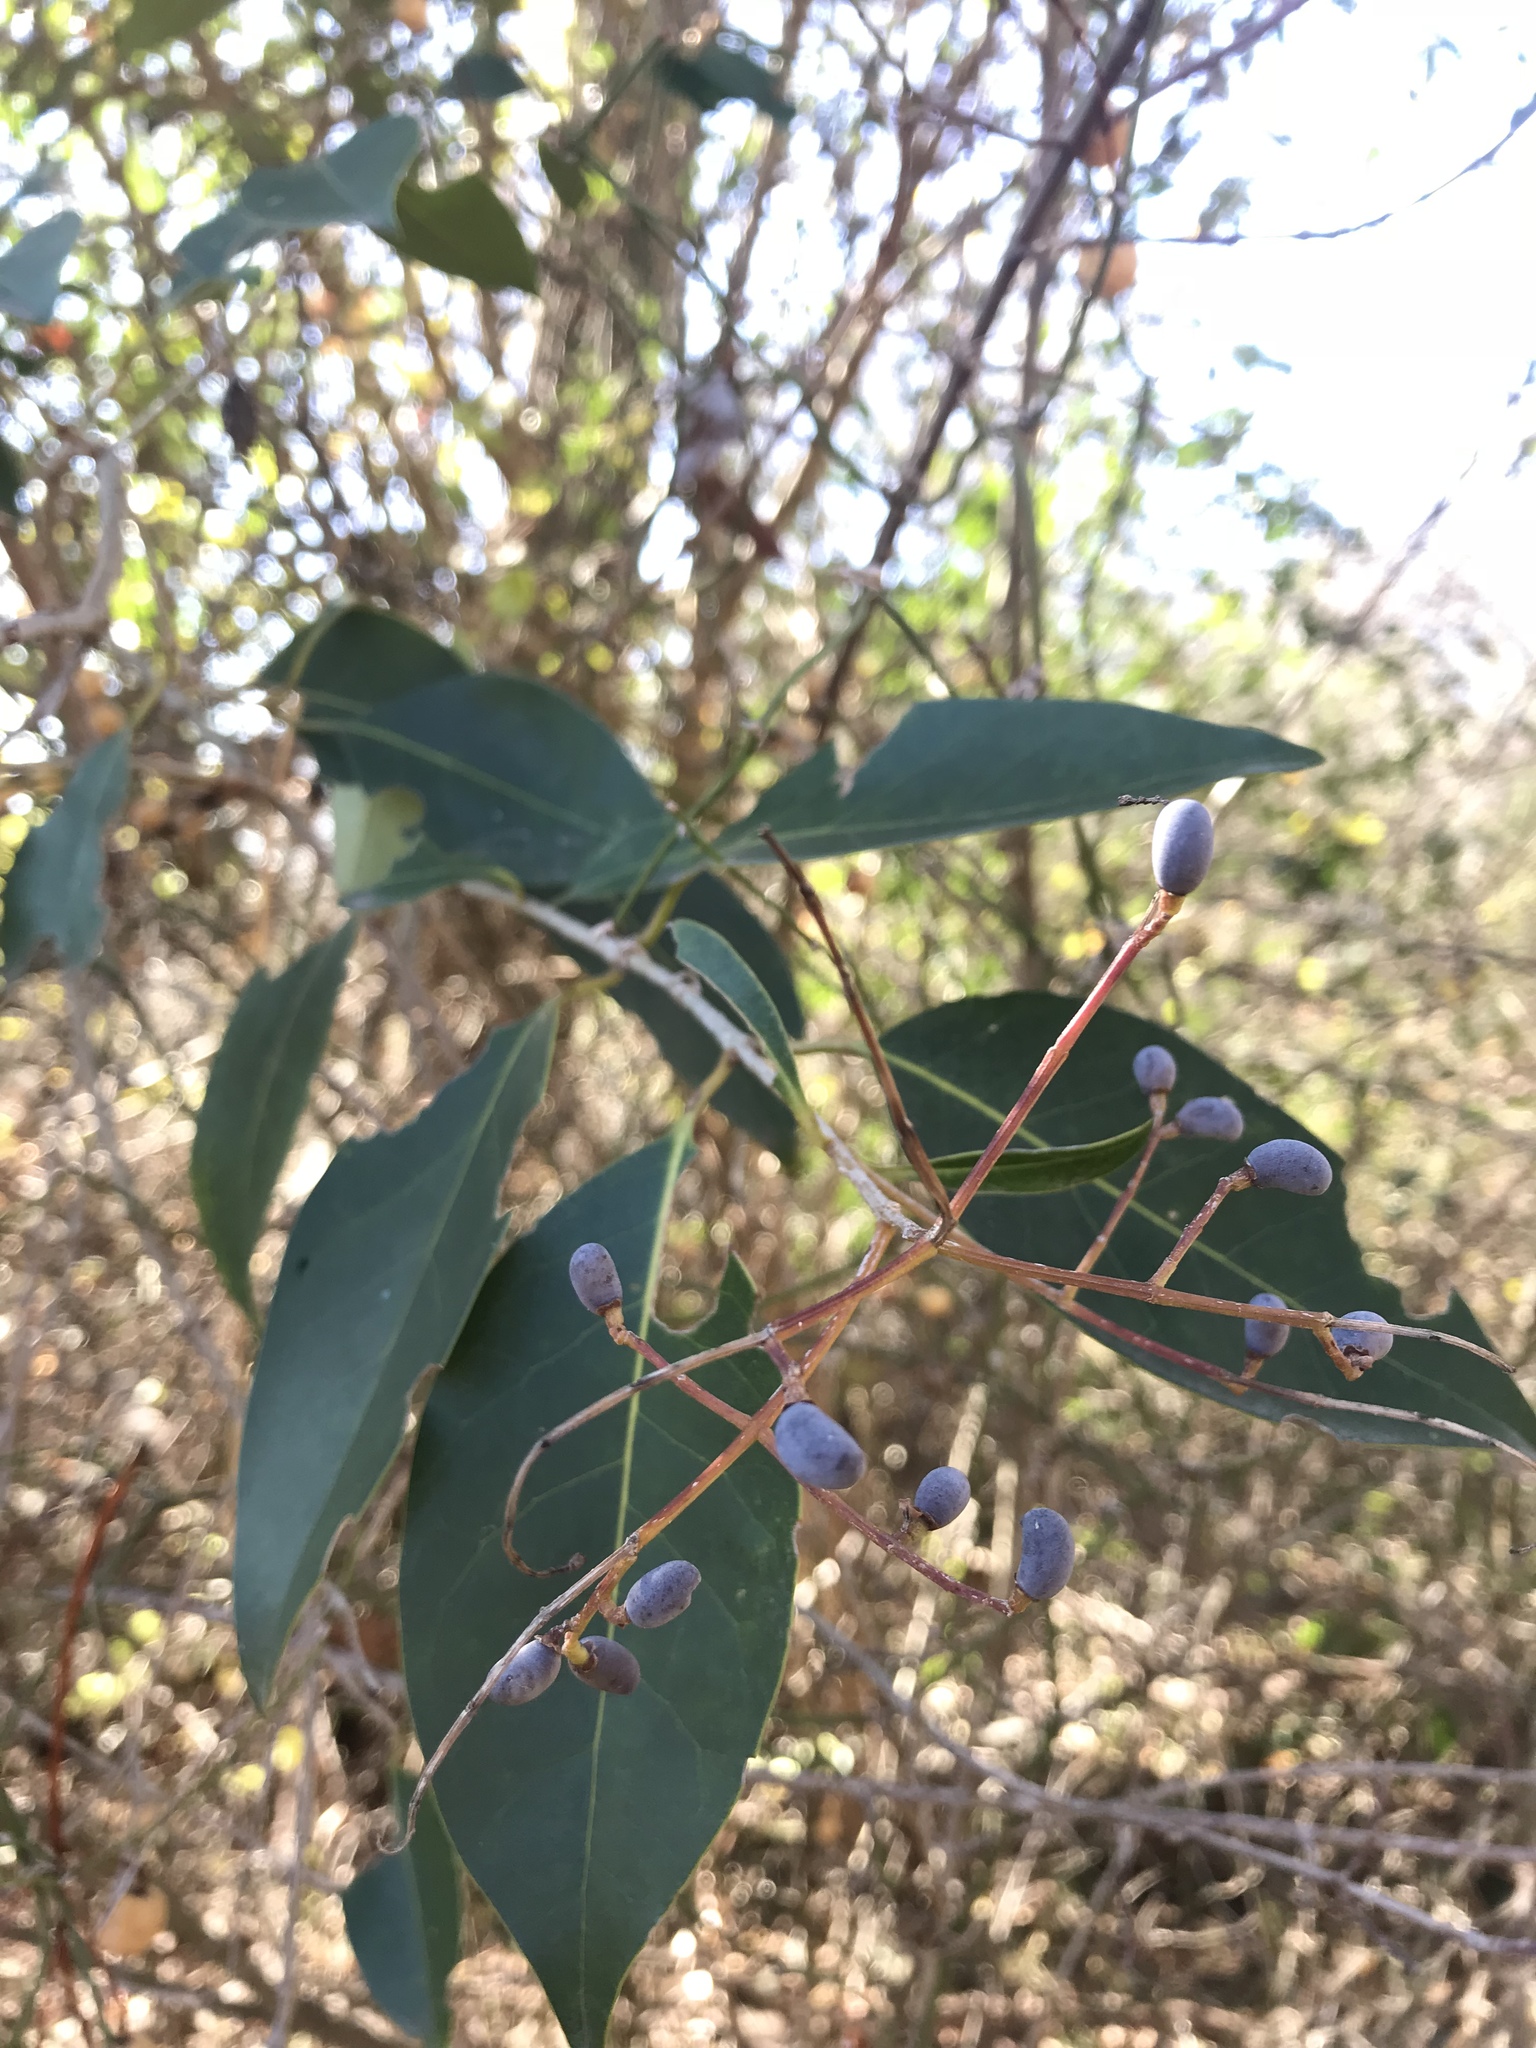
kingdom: Plantae
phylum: Tracheophyta
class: Magnoliopsida
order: Lamiales
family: Oleaceae
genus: Ligustrum
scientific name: Ligustrum lucidum
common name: Glossy privet
